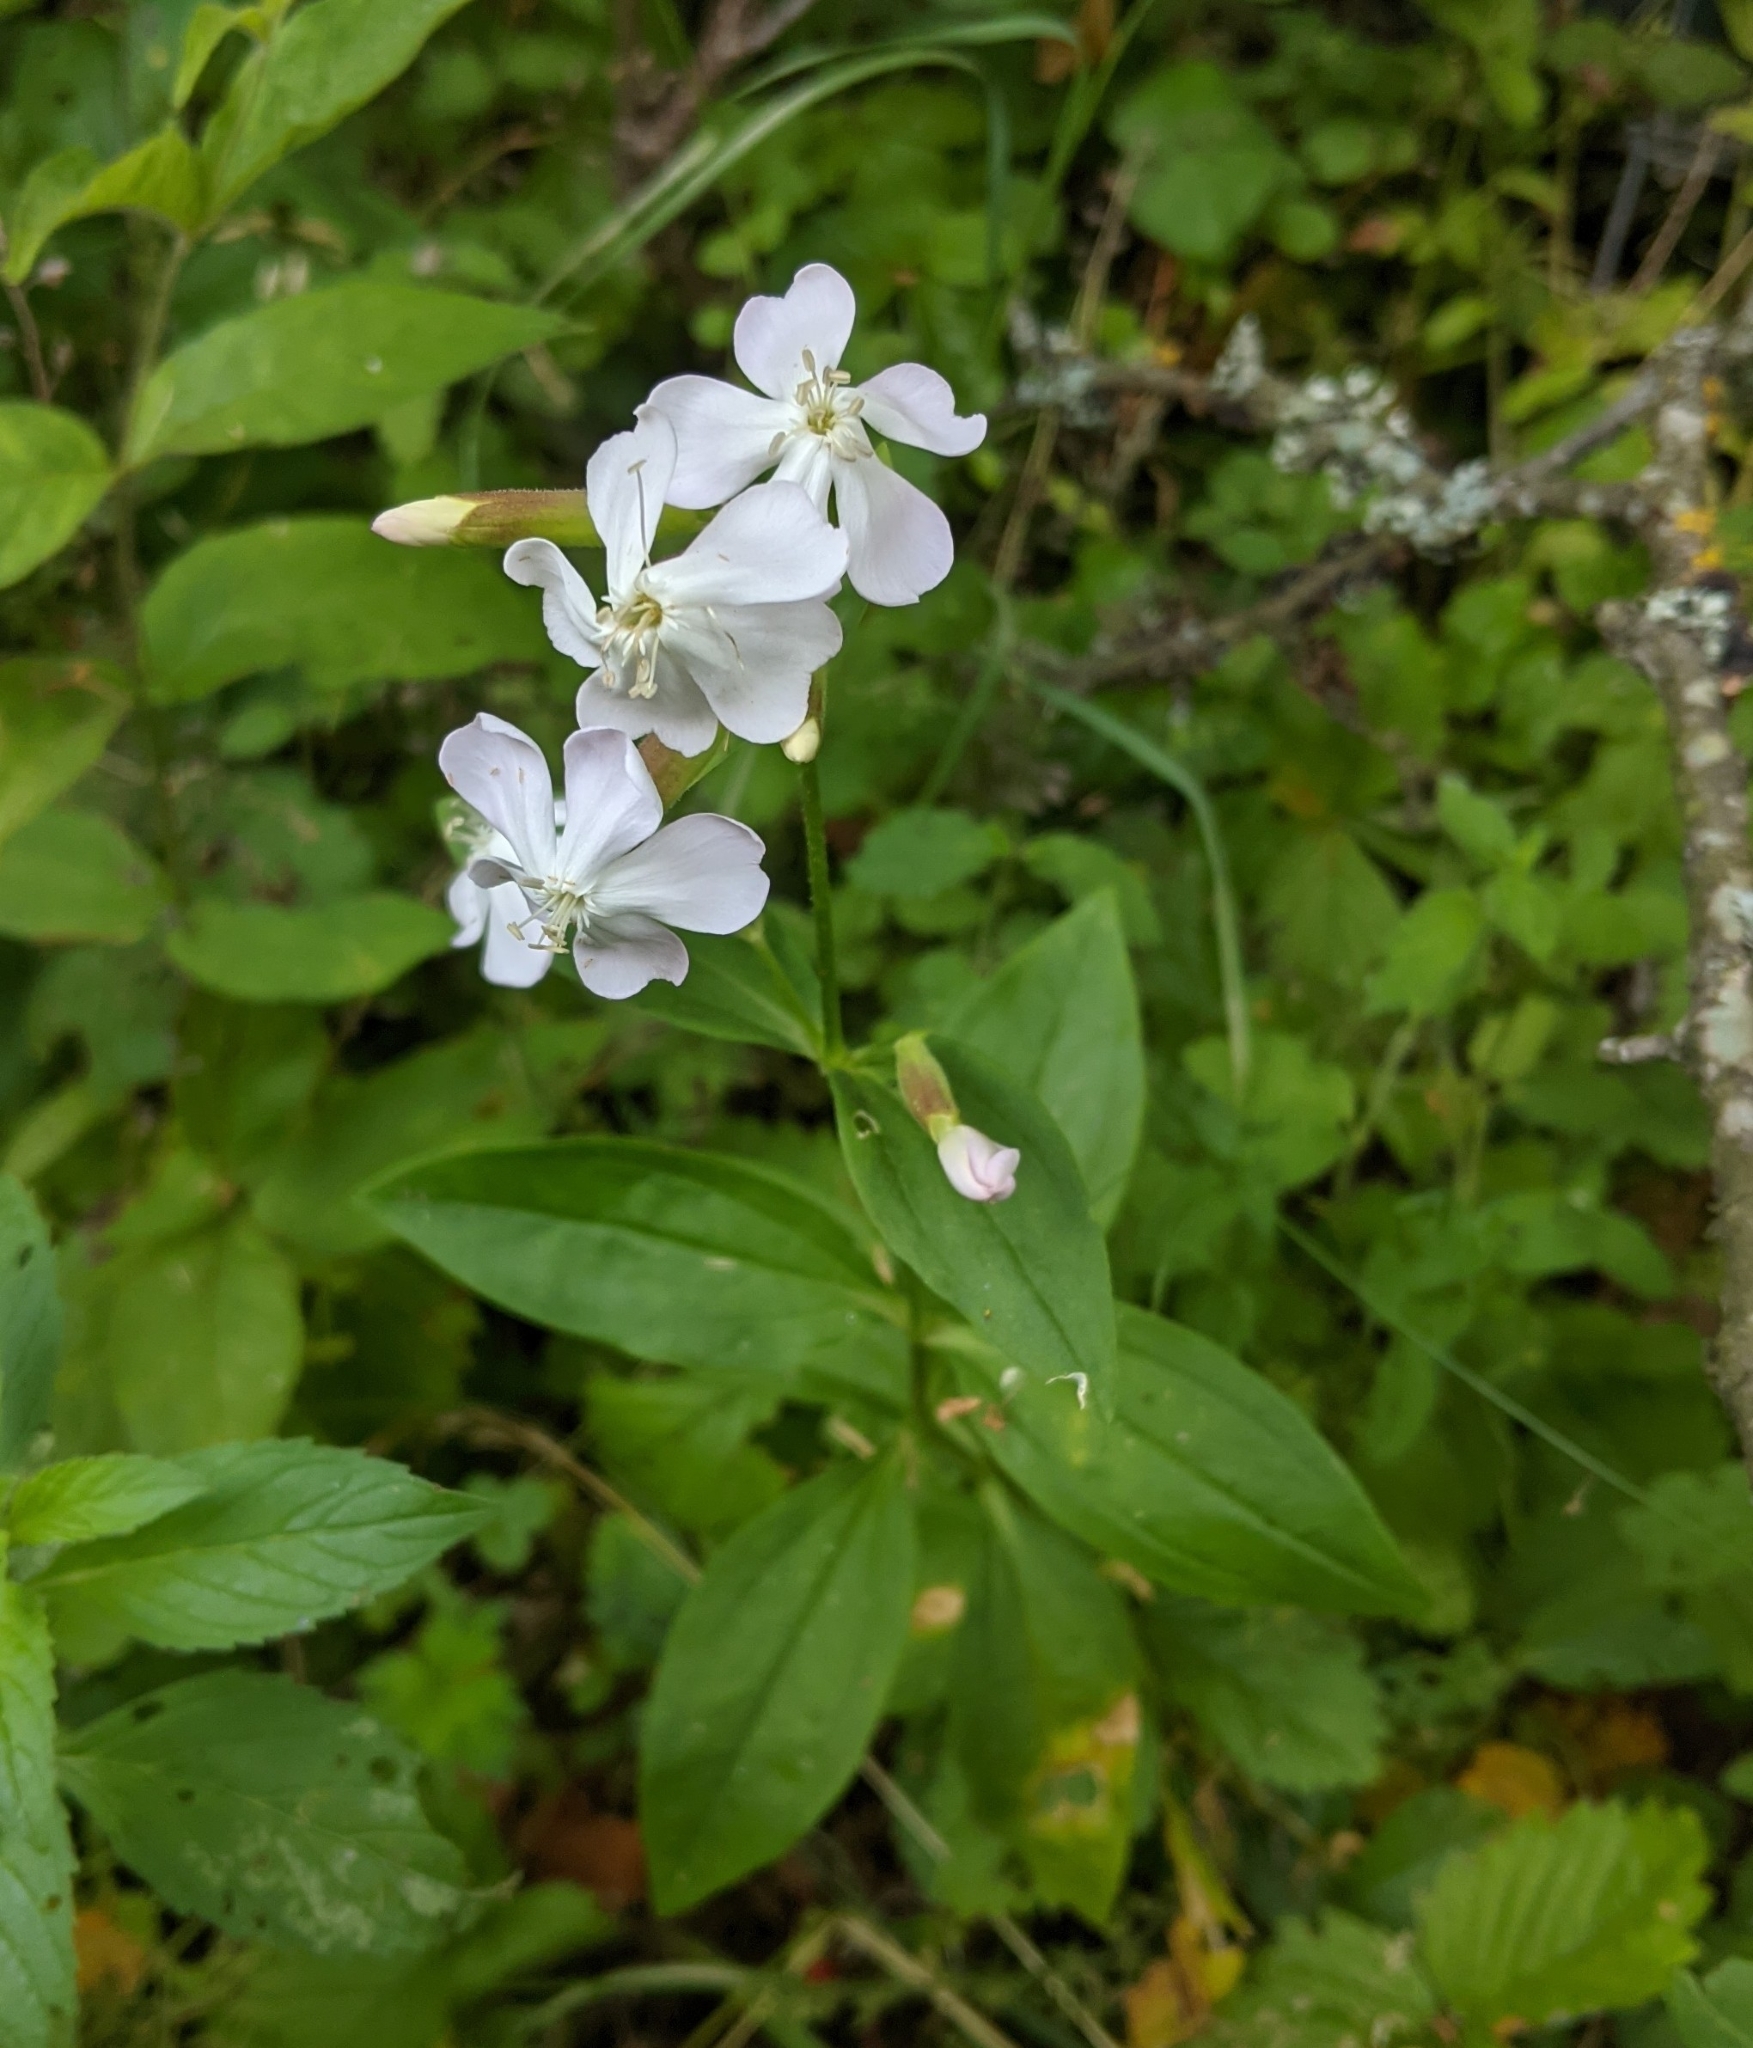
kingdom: Plantae
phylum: Tracheophyta
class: Magnoliopsida
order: Caryophyllales
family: Caryophyllaceae
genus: Saponaria
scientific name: Saponaria officinalis
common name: Soapwort
